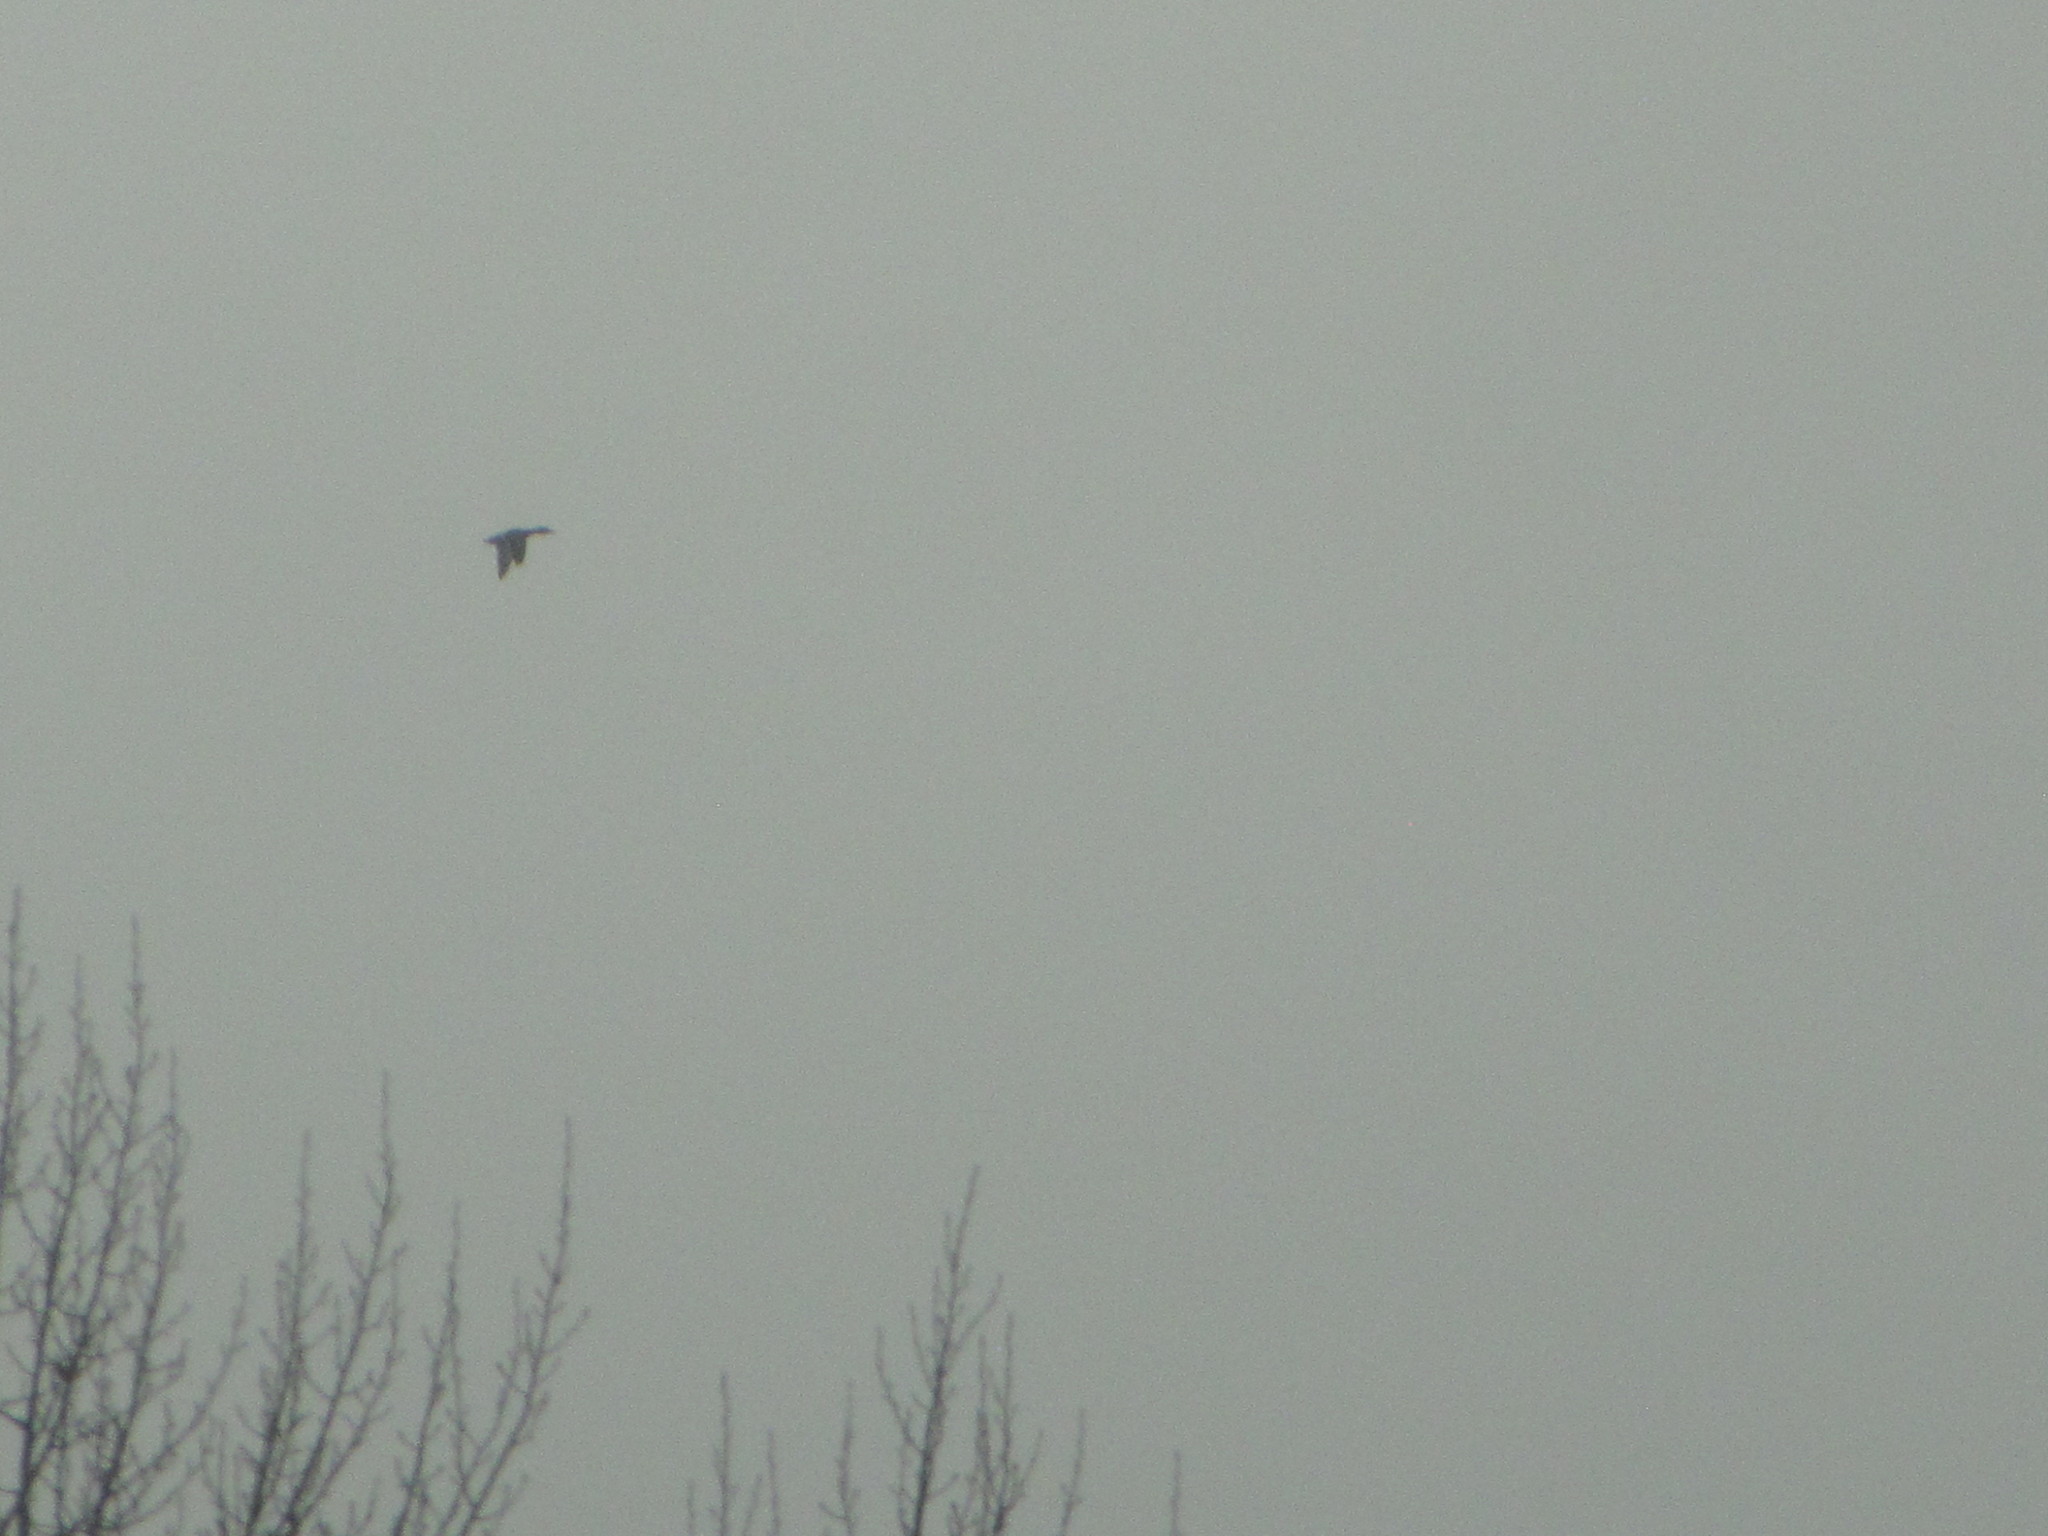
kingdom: Animalia
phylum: Chordata
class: Aves
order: Anseriformes
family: Anatidae
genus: Anas
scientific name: Anas platyrhynchos
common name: Mallard
